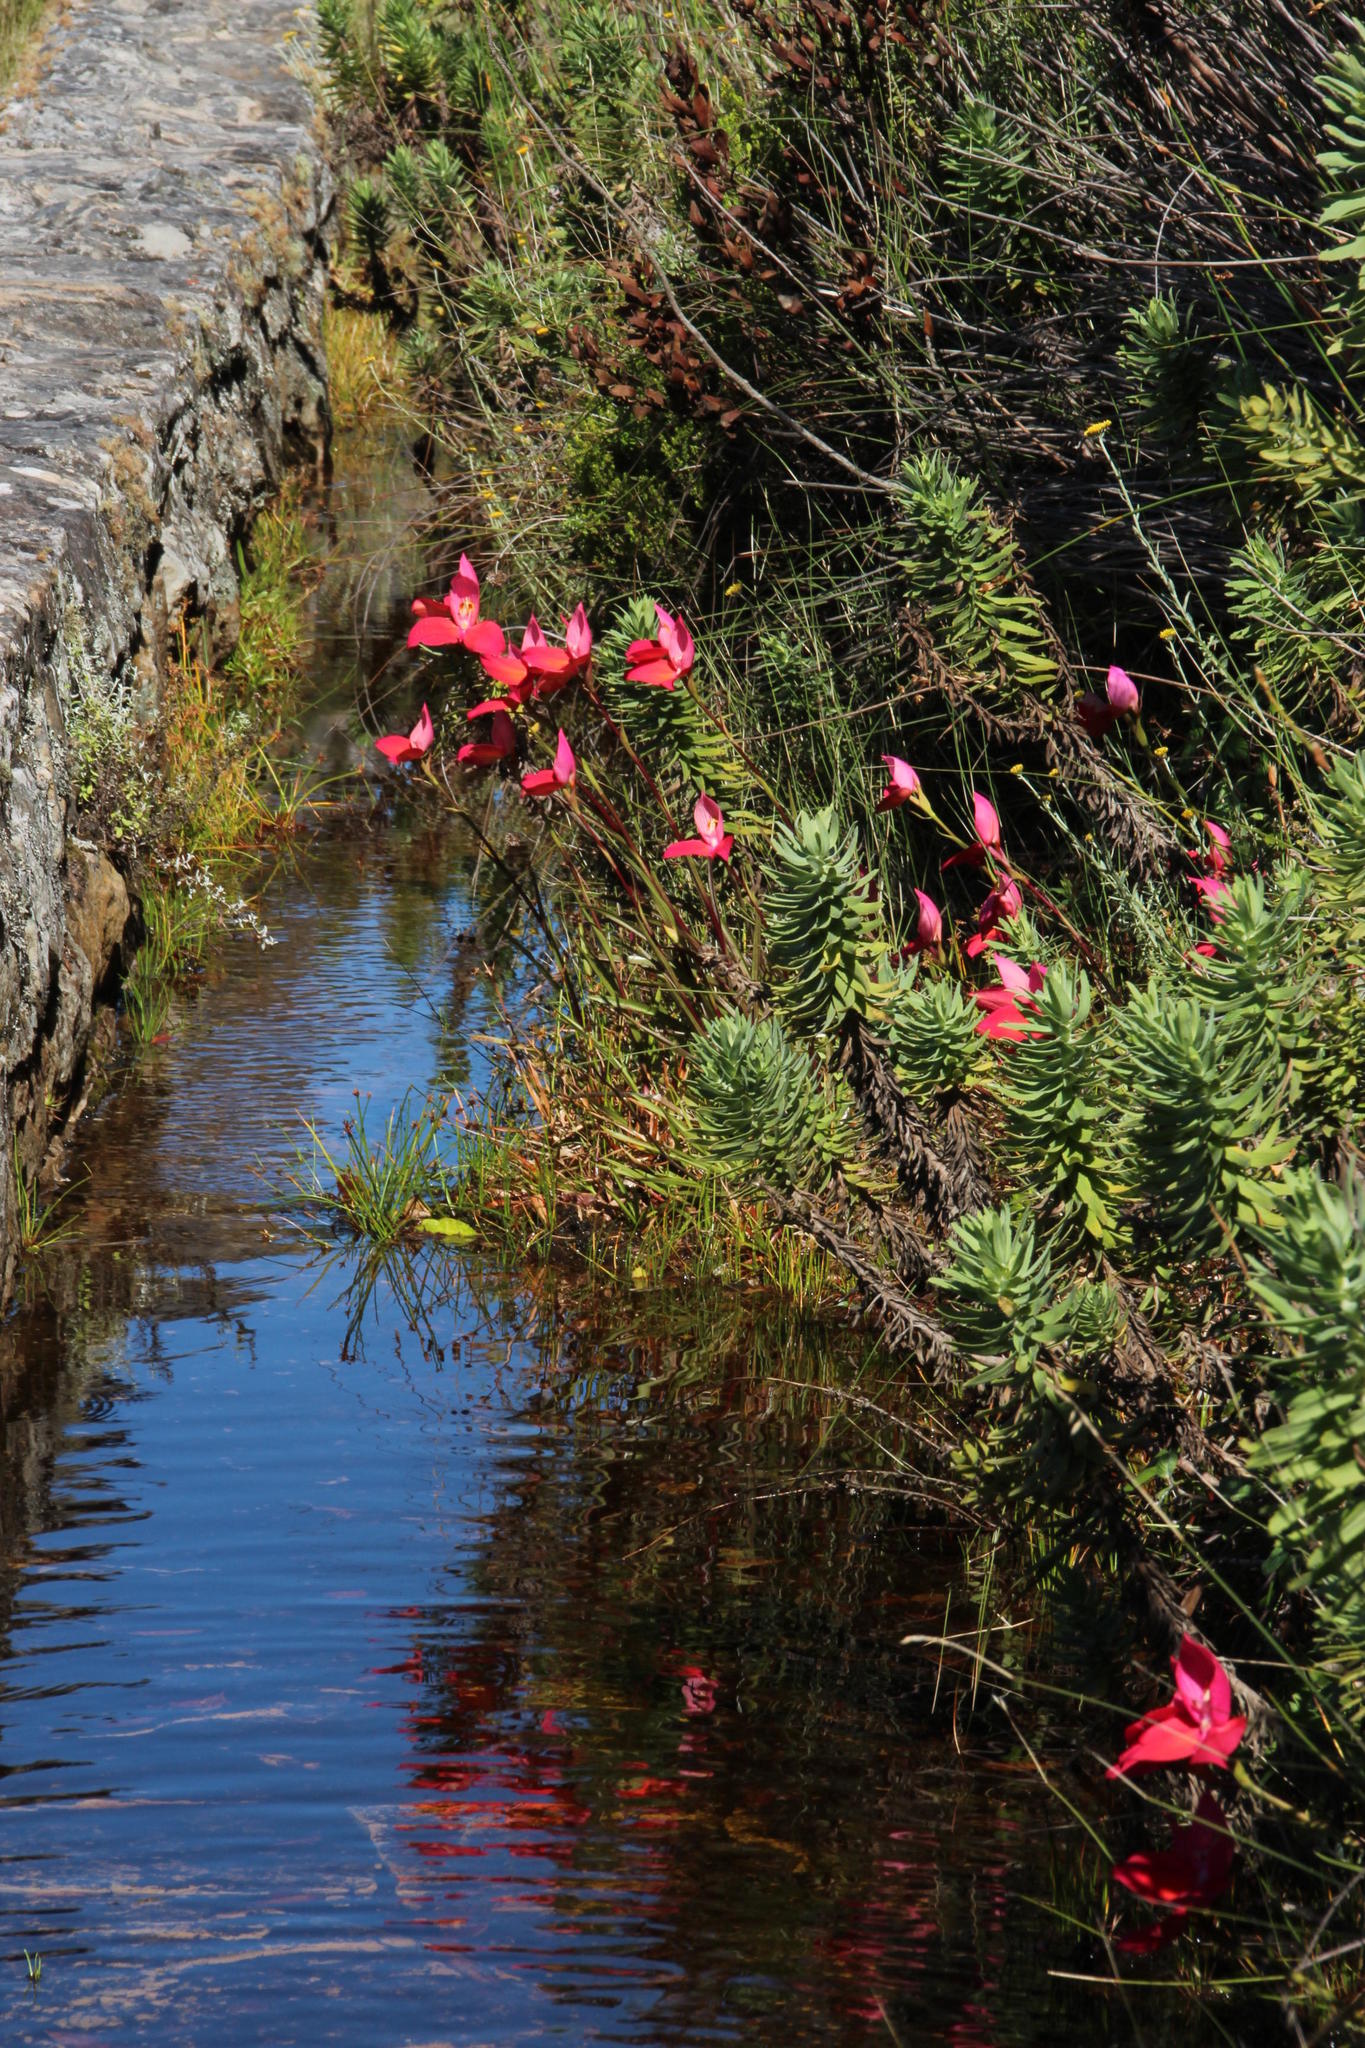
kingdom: Plantae
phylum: Tracheophyta
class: Liliopsida
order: Asparagales
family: Orchidaceae
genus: Disa
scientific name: Disa uniflora
